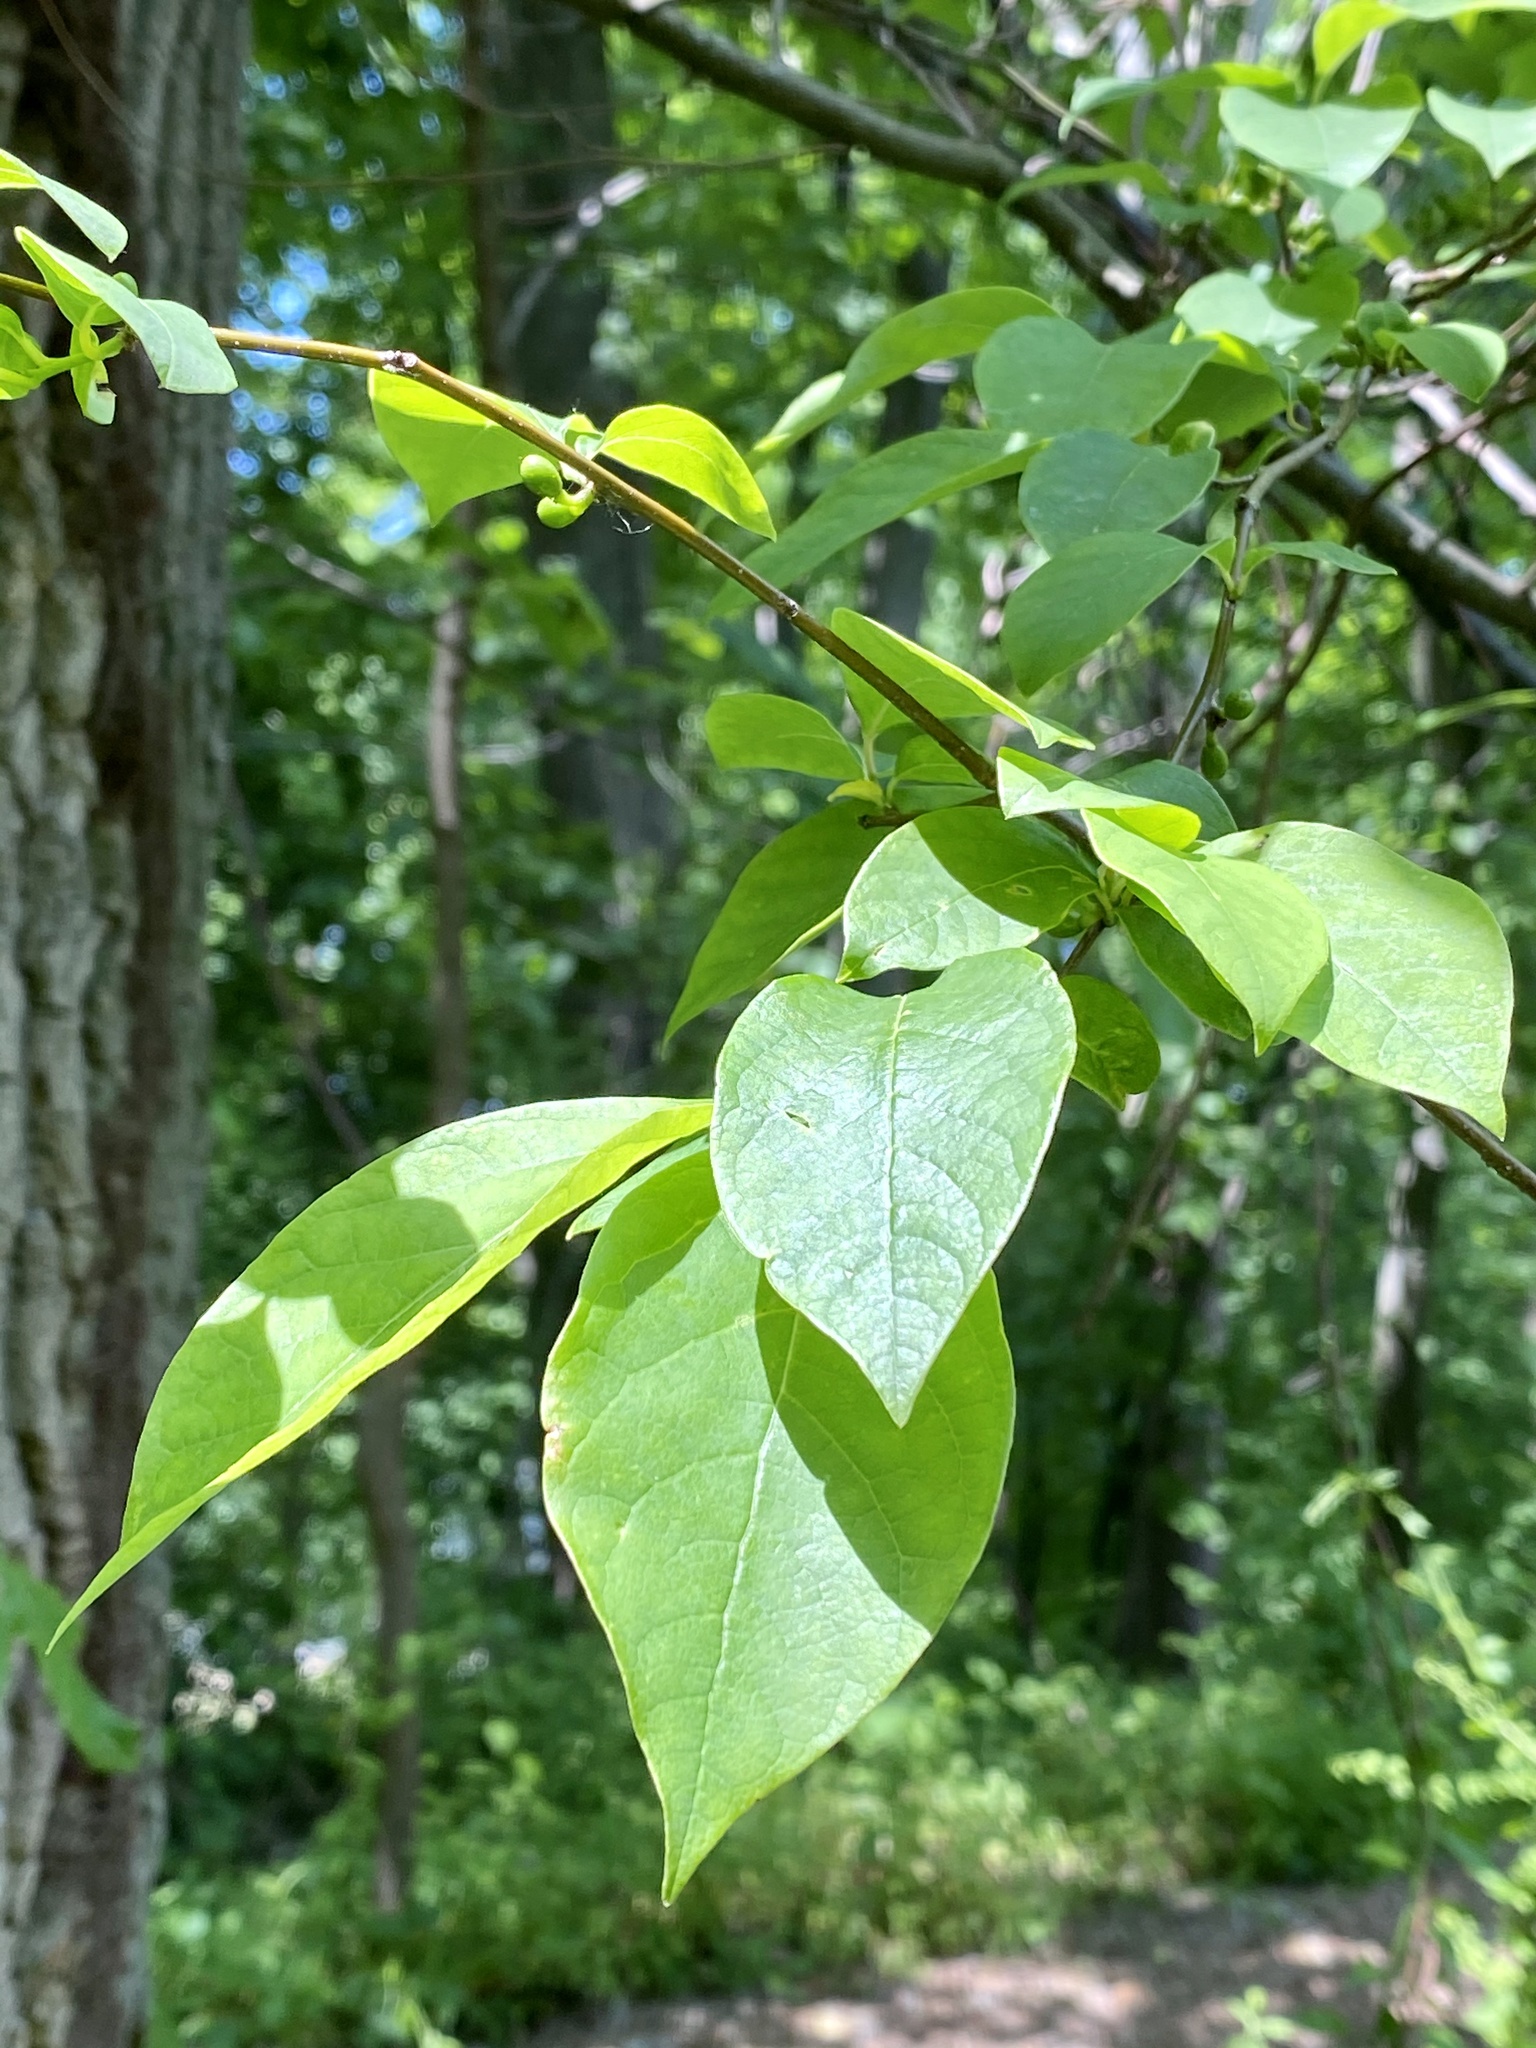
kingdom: Plantae
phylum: Tracheophyta
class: Magnoliopsida
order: Laurales
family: Lauraceae
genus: Lindera
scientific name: Lindera benzoin
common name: Spicebush
